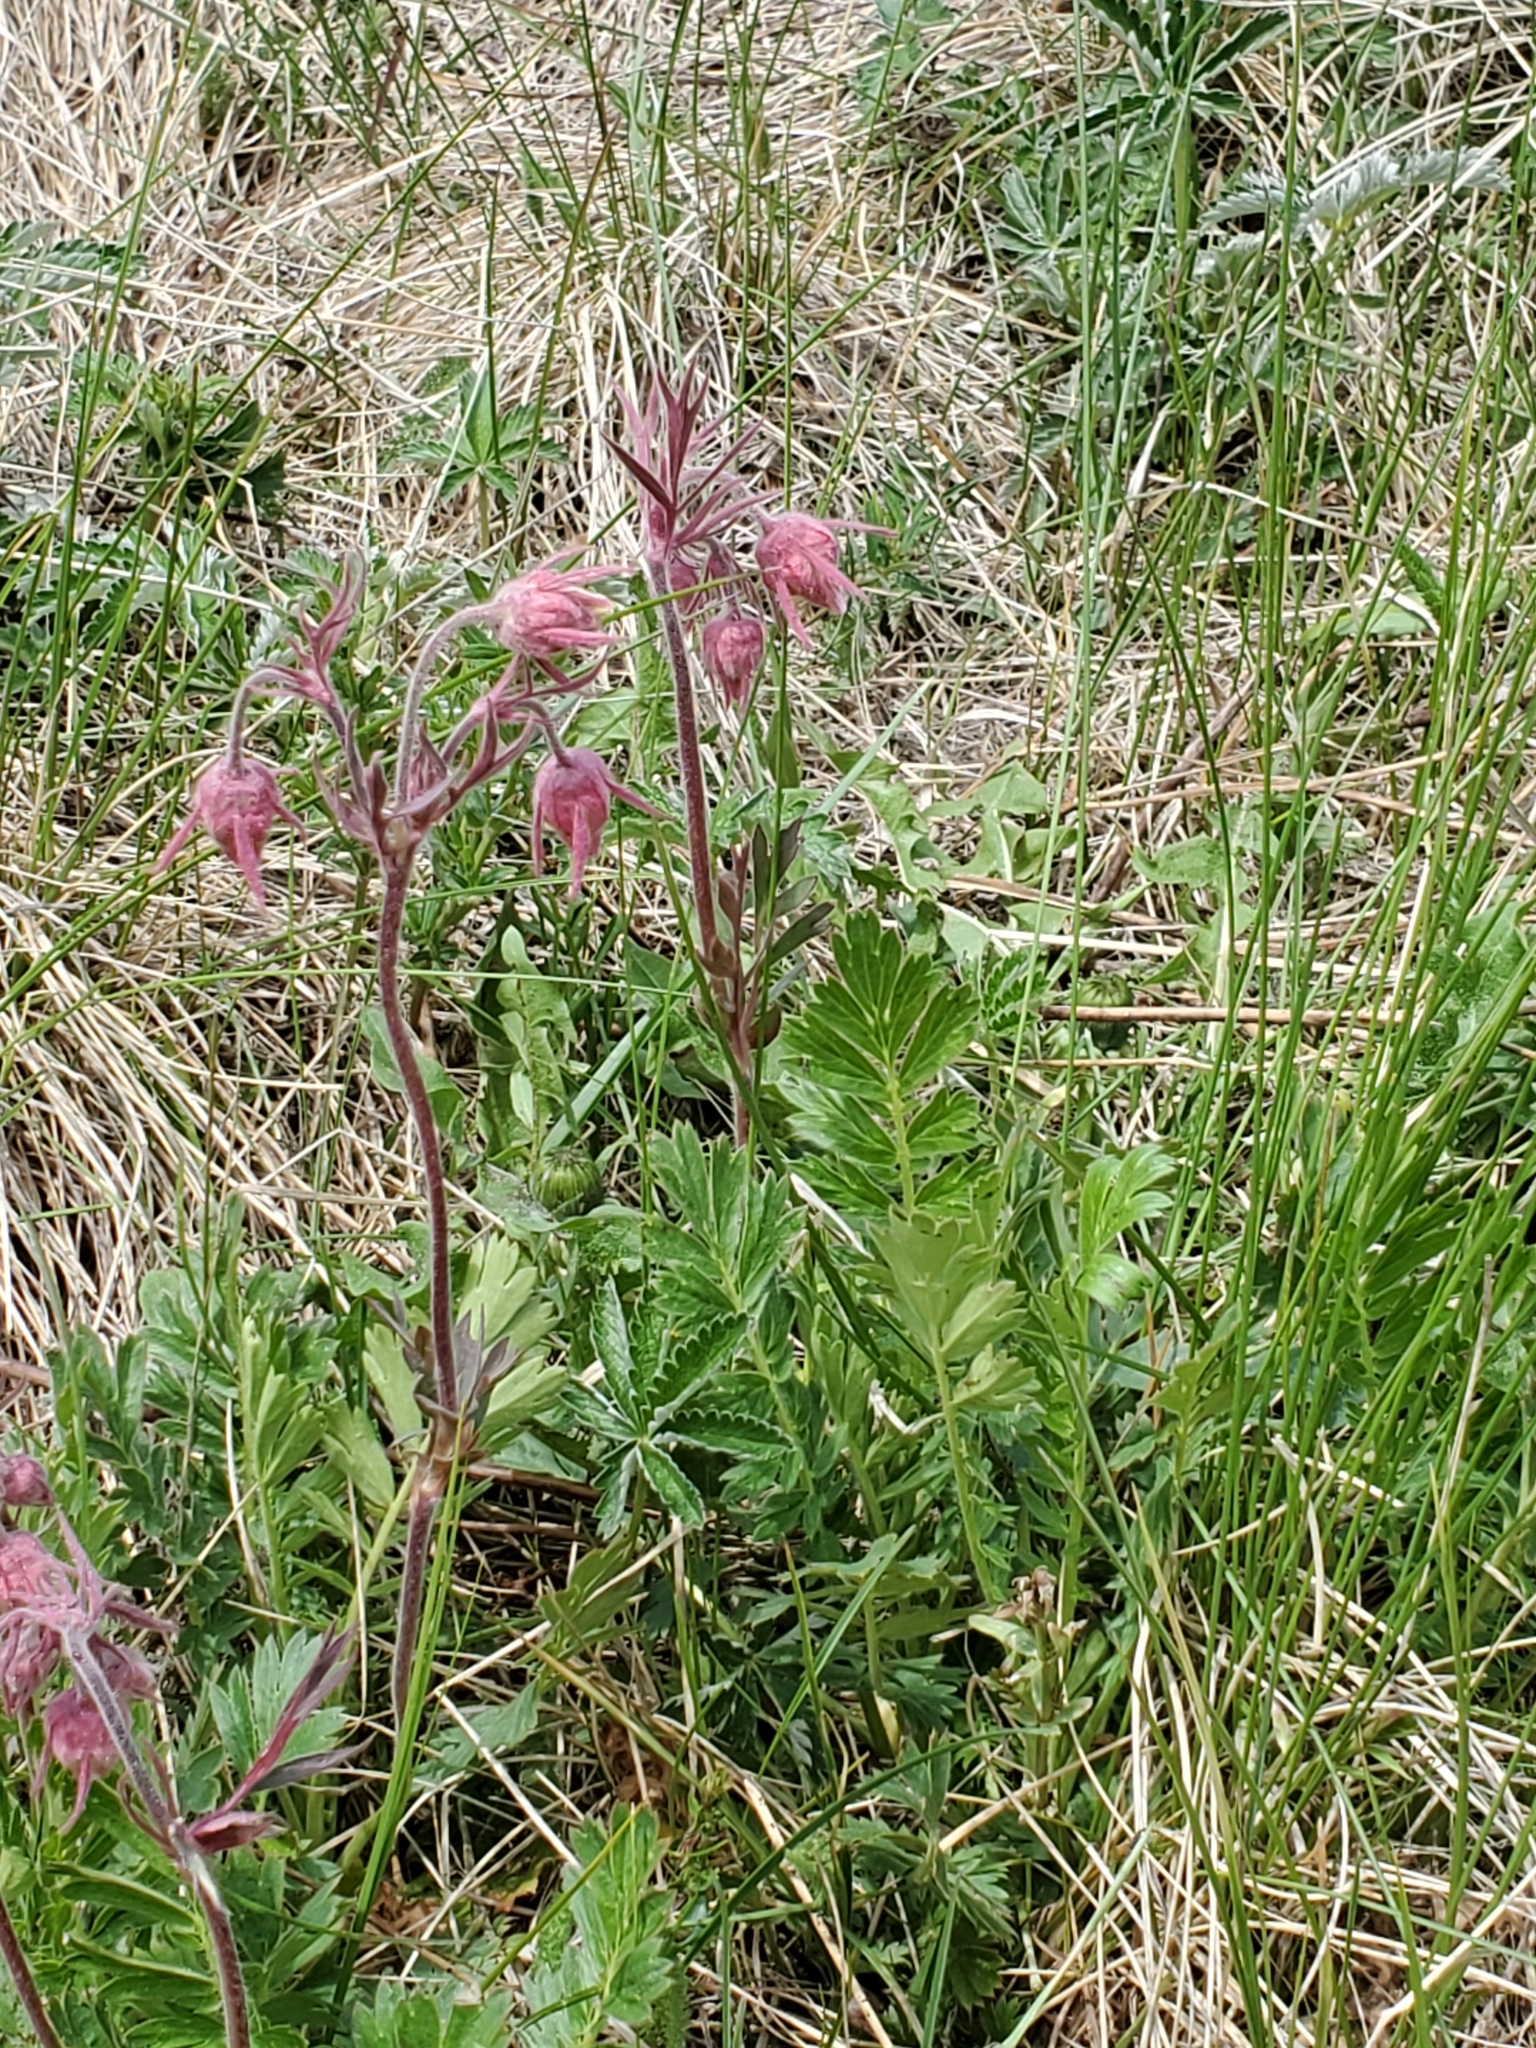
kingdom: Plantae
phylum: Tracheophyta
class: Magnoliopsida
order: Rosales
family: Rosaceae
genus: Geum
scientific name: Geum triflorum
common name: Old man's whiskers
